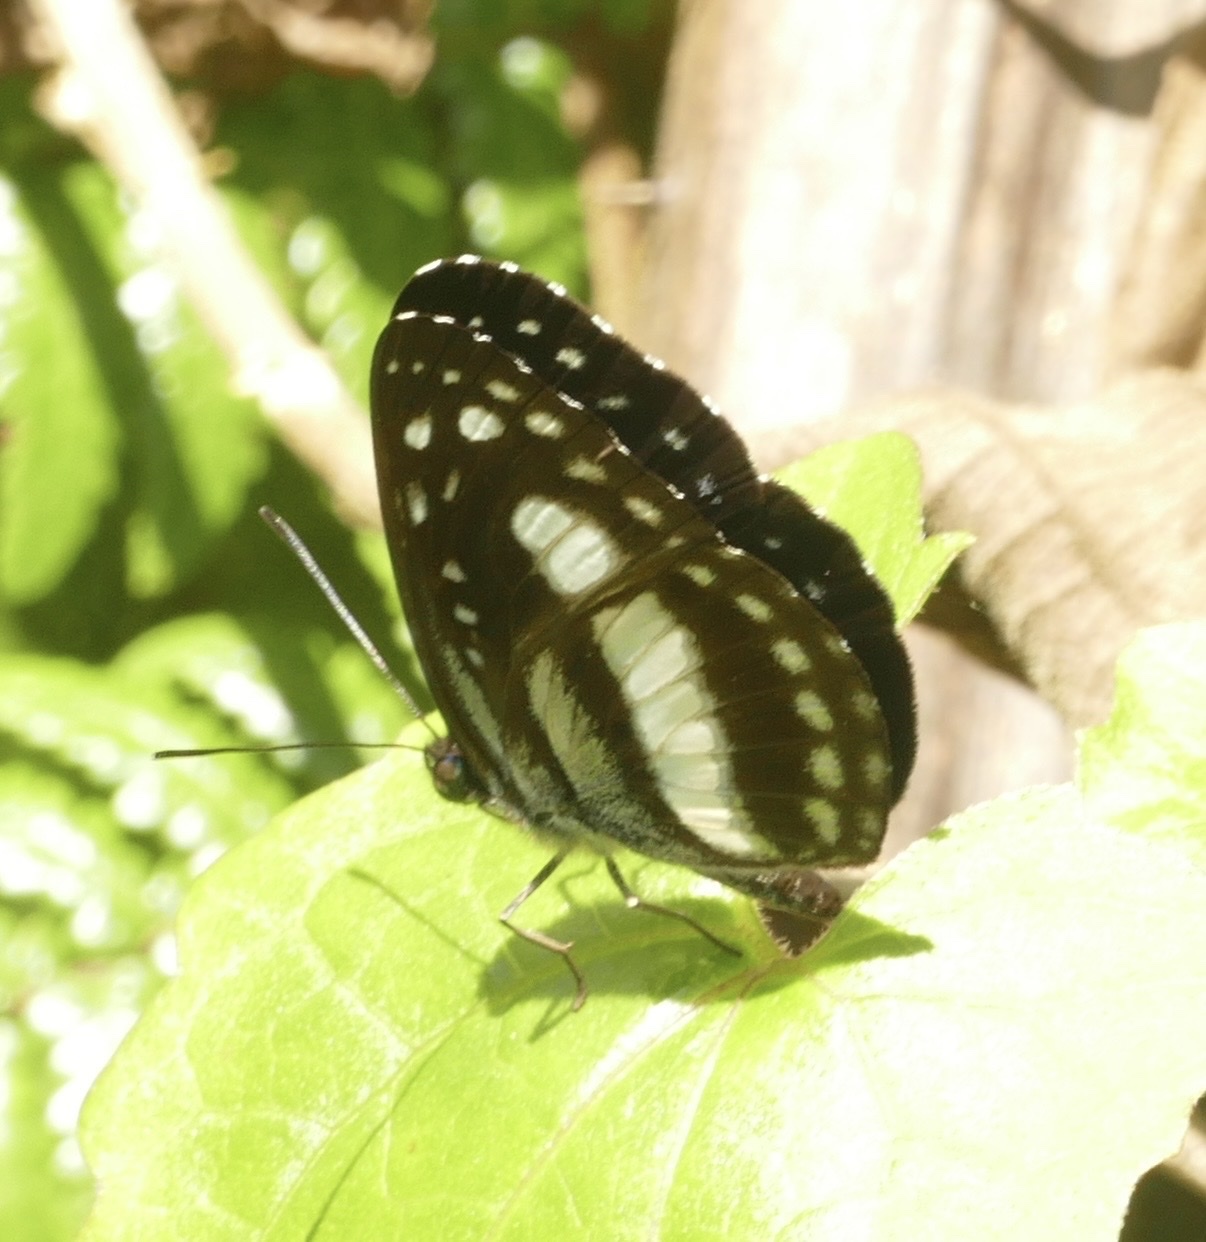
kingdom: Animalia
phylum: Arthropoda
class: Insecta
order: Lepidoptera
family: Nymphalidae
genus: Pantoporia
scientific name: Pantoporia venilia
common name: Cape york aeroplane
